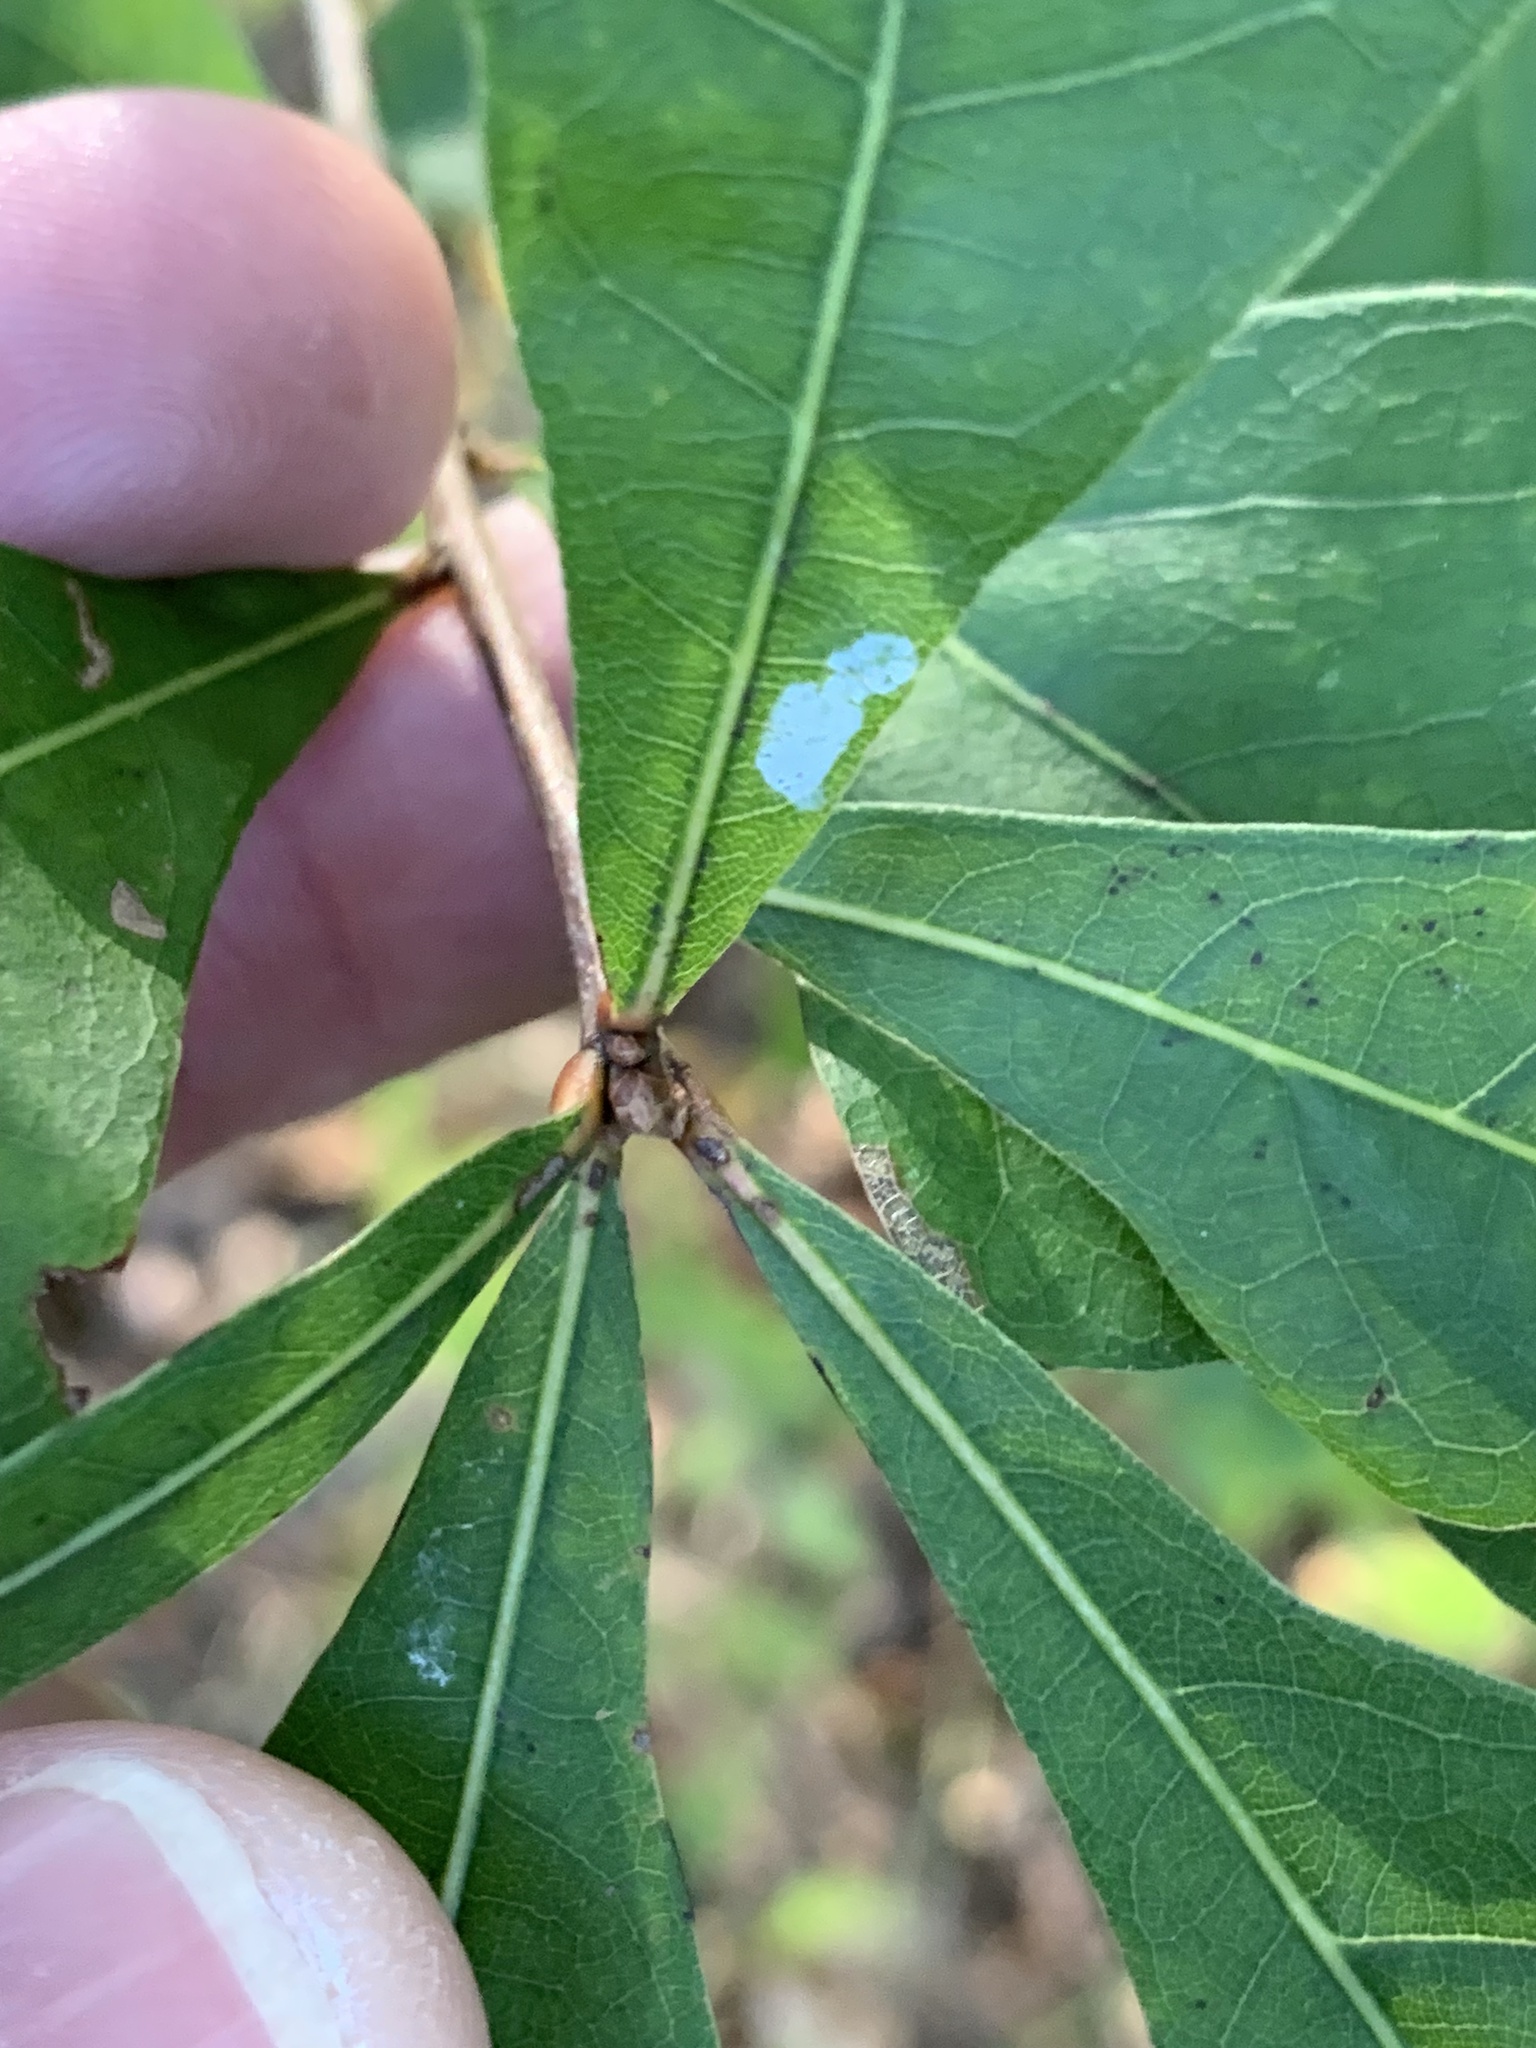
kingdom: Plantae
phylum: Tracheophyta
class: Magnoliopsida
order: Fagales
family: Fagaceae
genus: Quercus
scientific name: Quercus nigra
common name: Water oak
